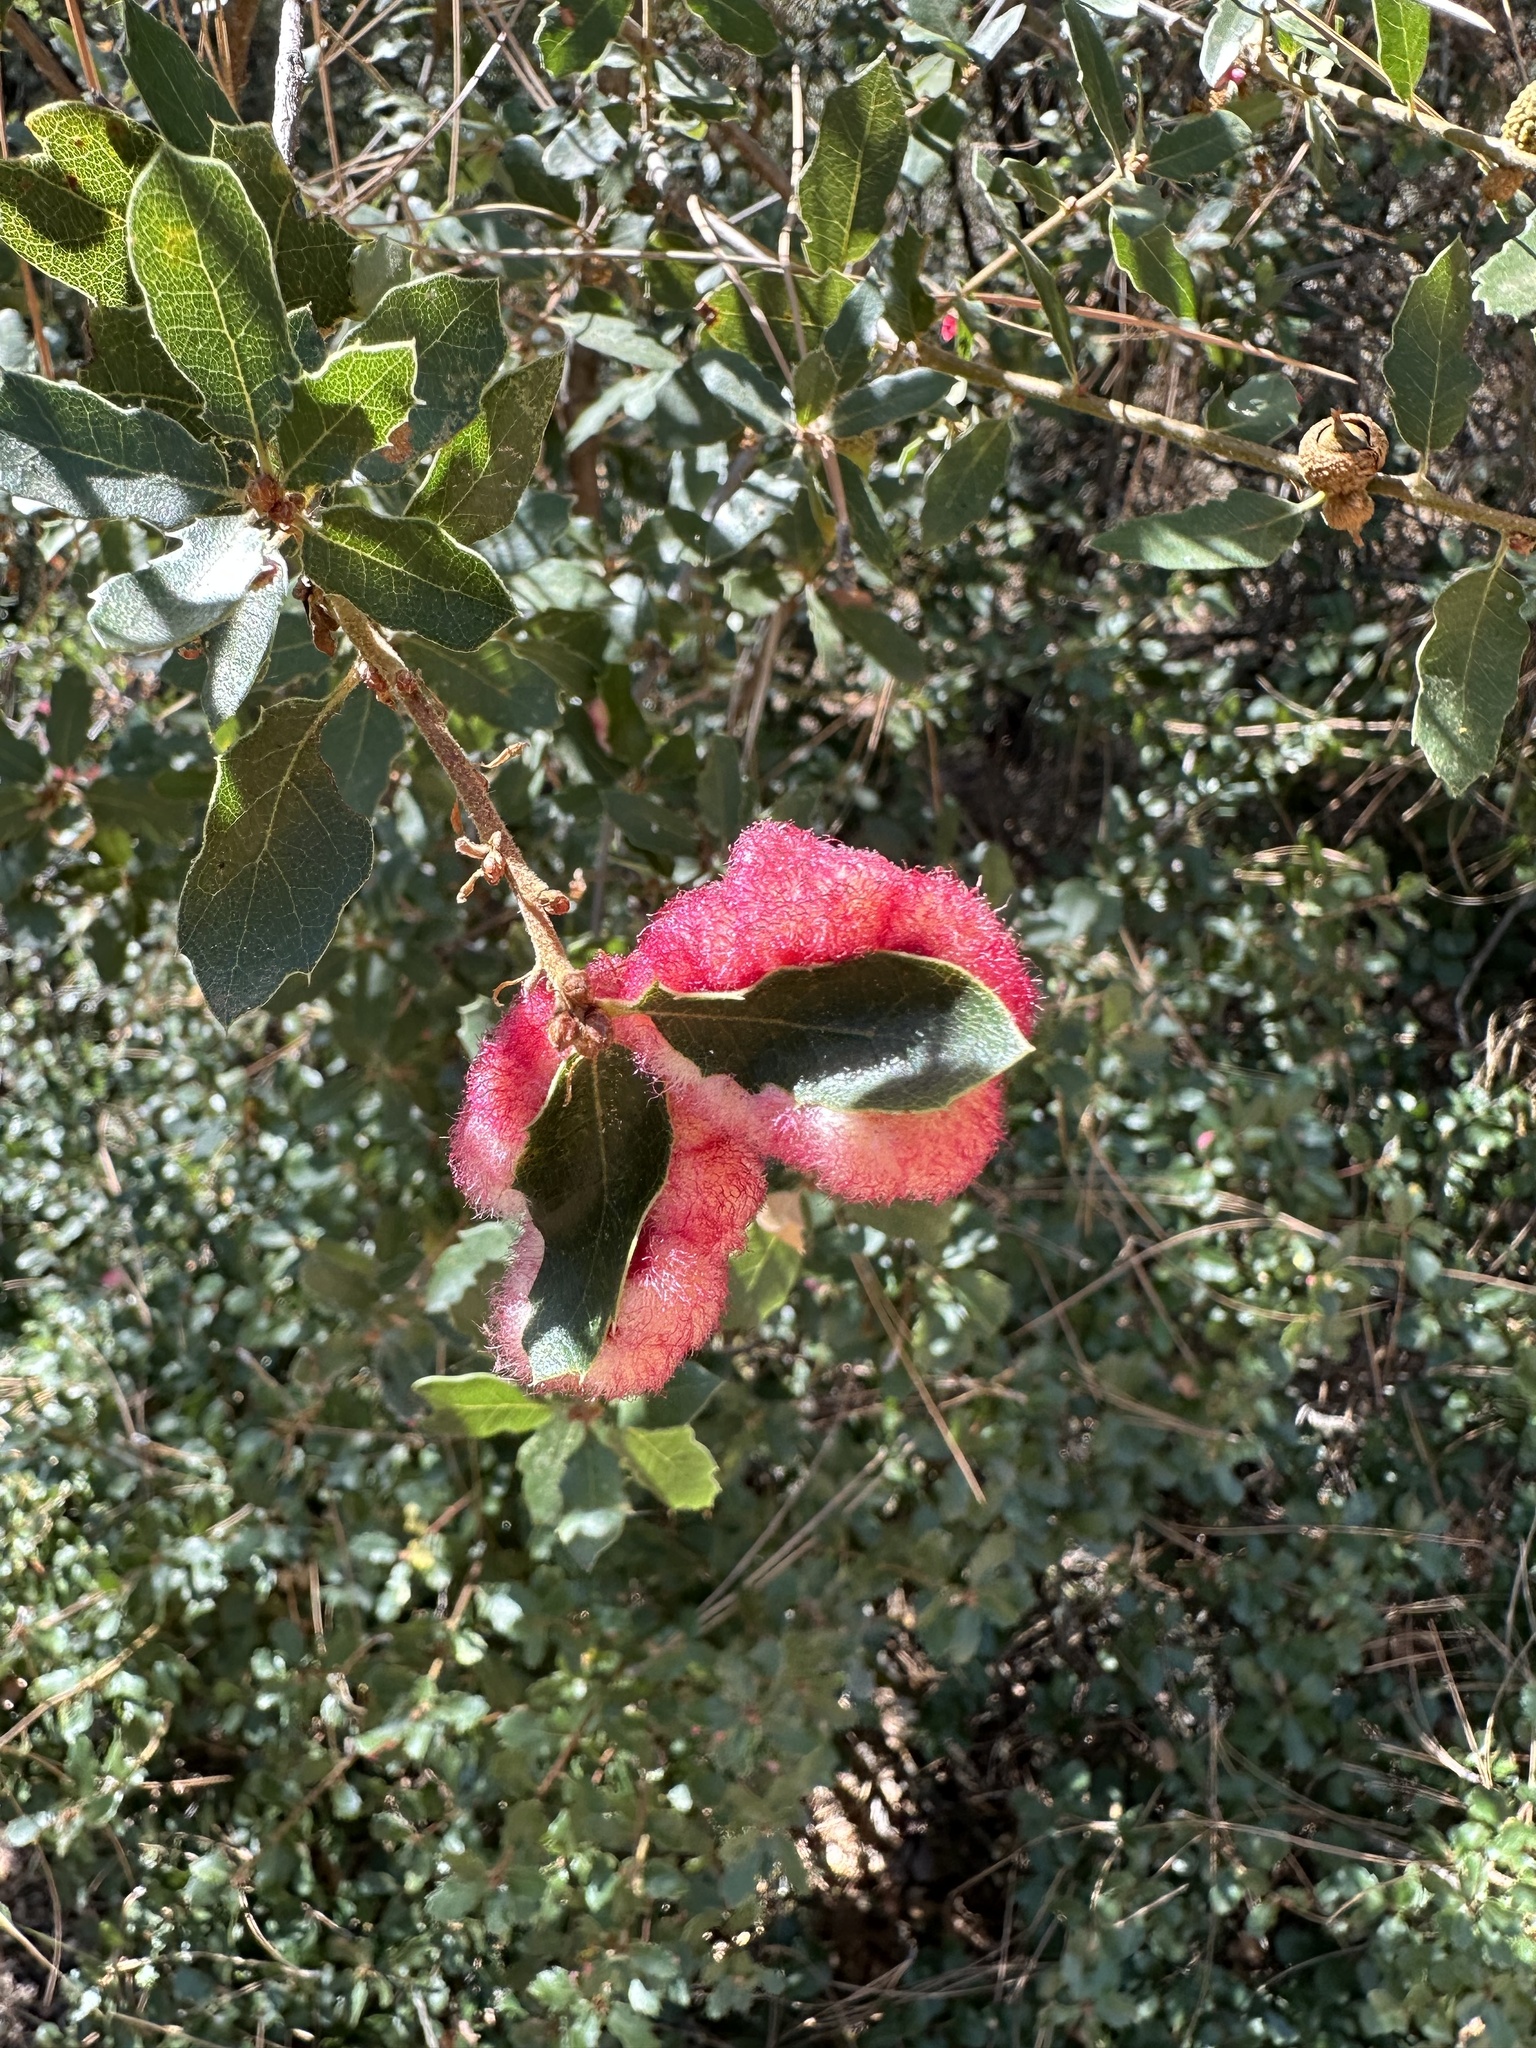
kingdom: Animalia
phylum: Arthropoda
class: Insecta
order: Hymenoptera
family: Cynipidae
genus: Andricus
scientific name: Andricus
